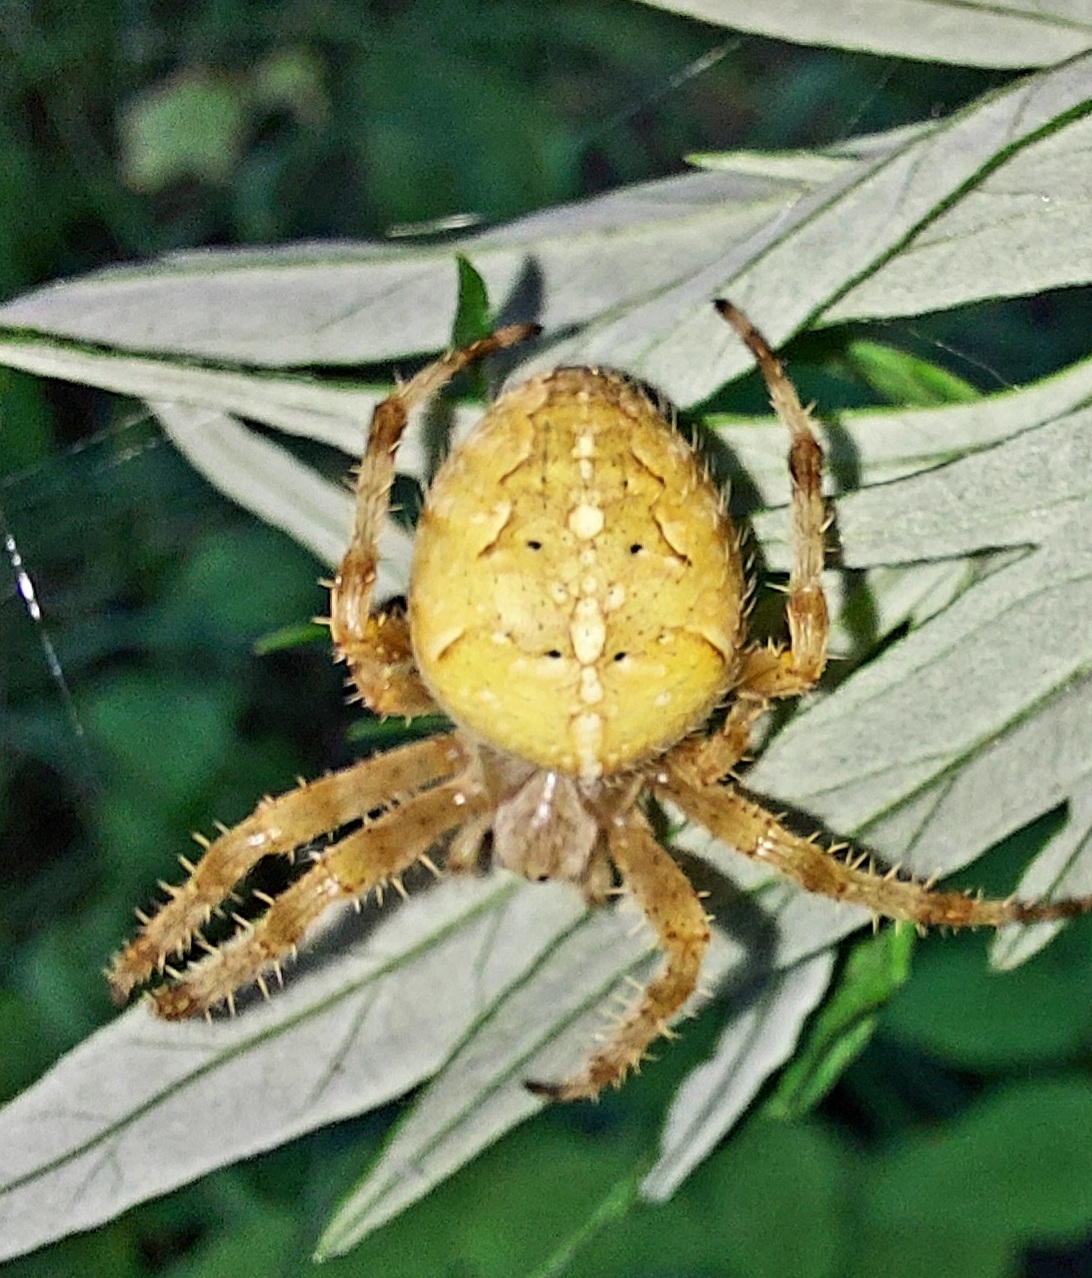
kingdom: Animalia
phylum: Arthropoda
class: Arachnida
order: Araneae
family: Araneidae
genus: Araneus
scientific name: Araneus diadematus
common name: Cross orbweaver
